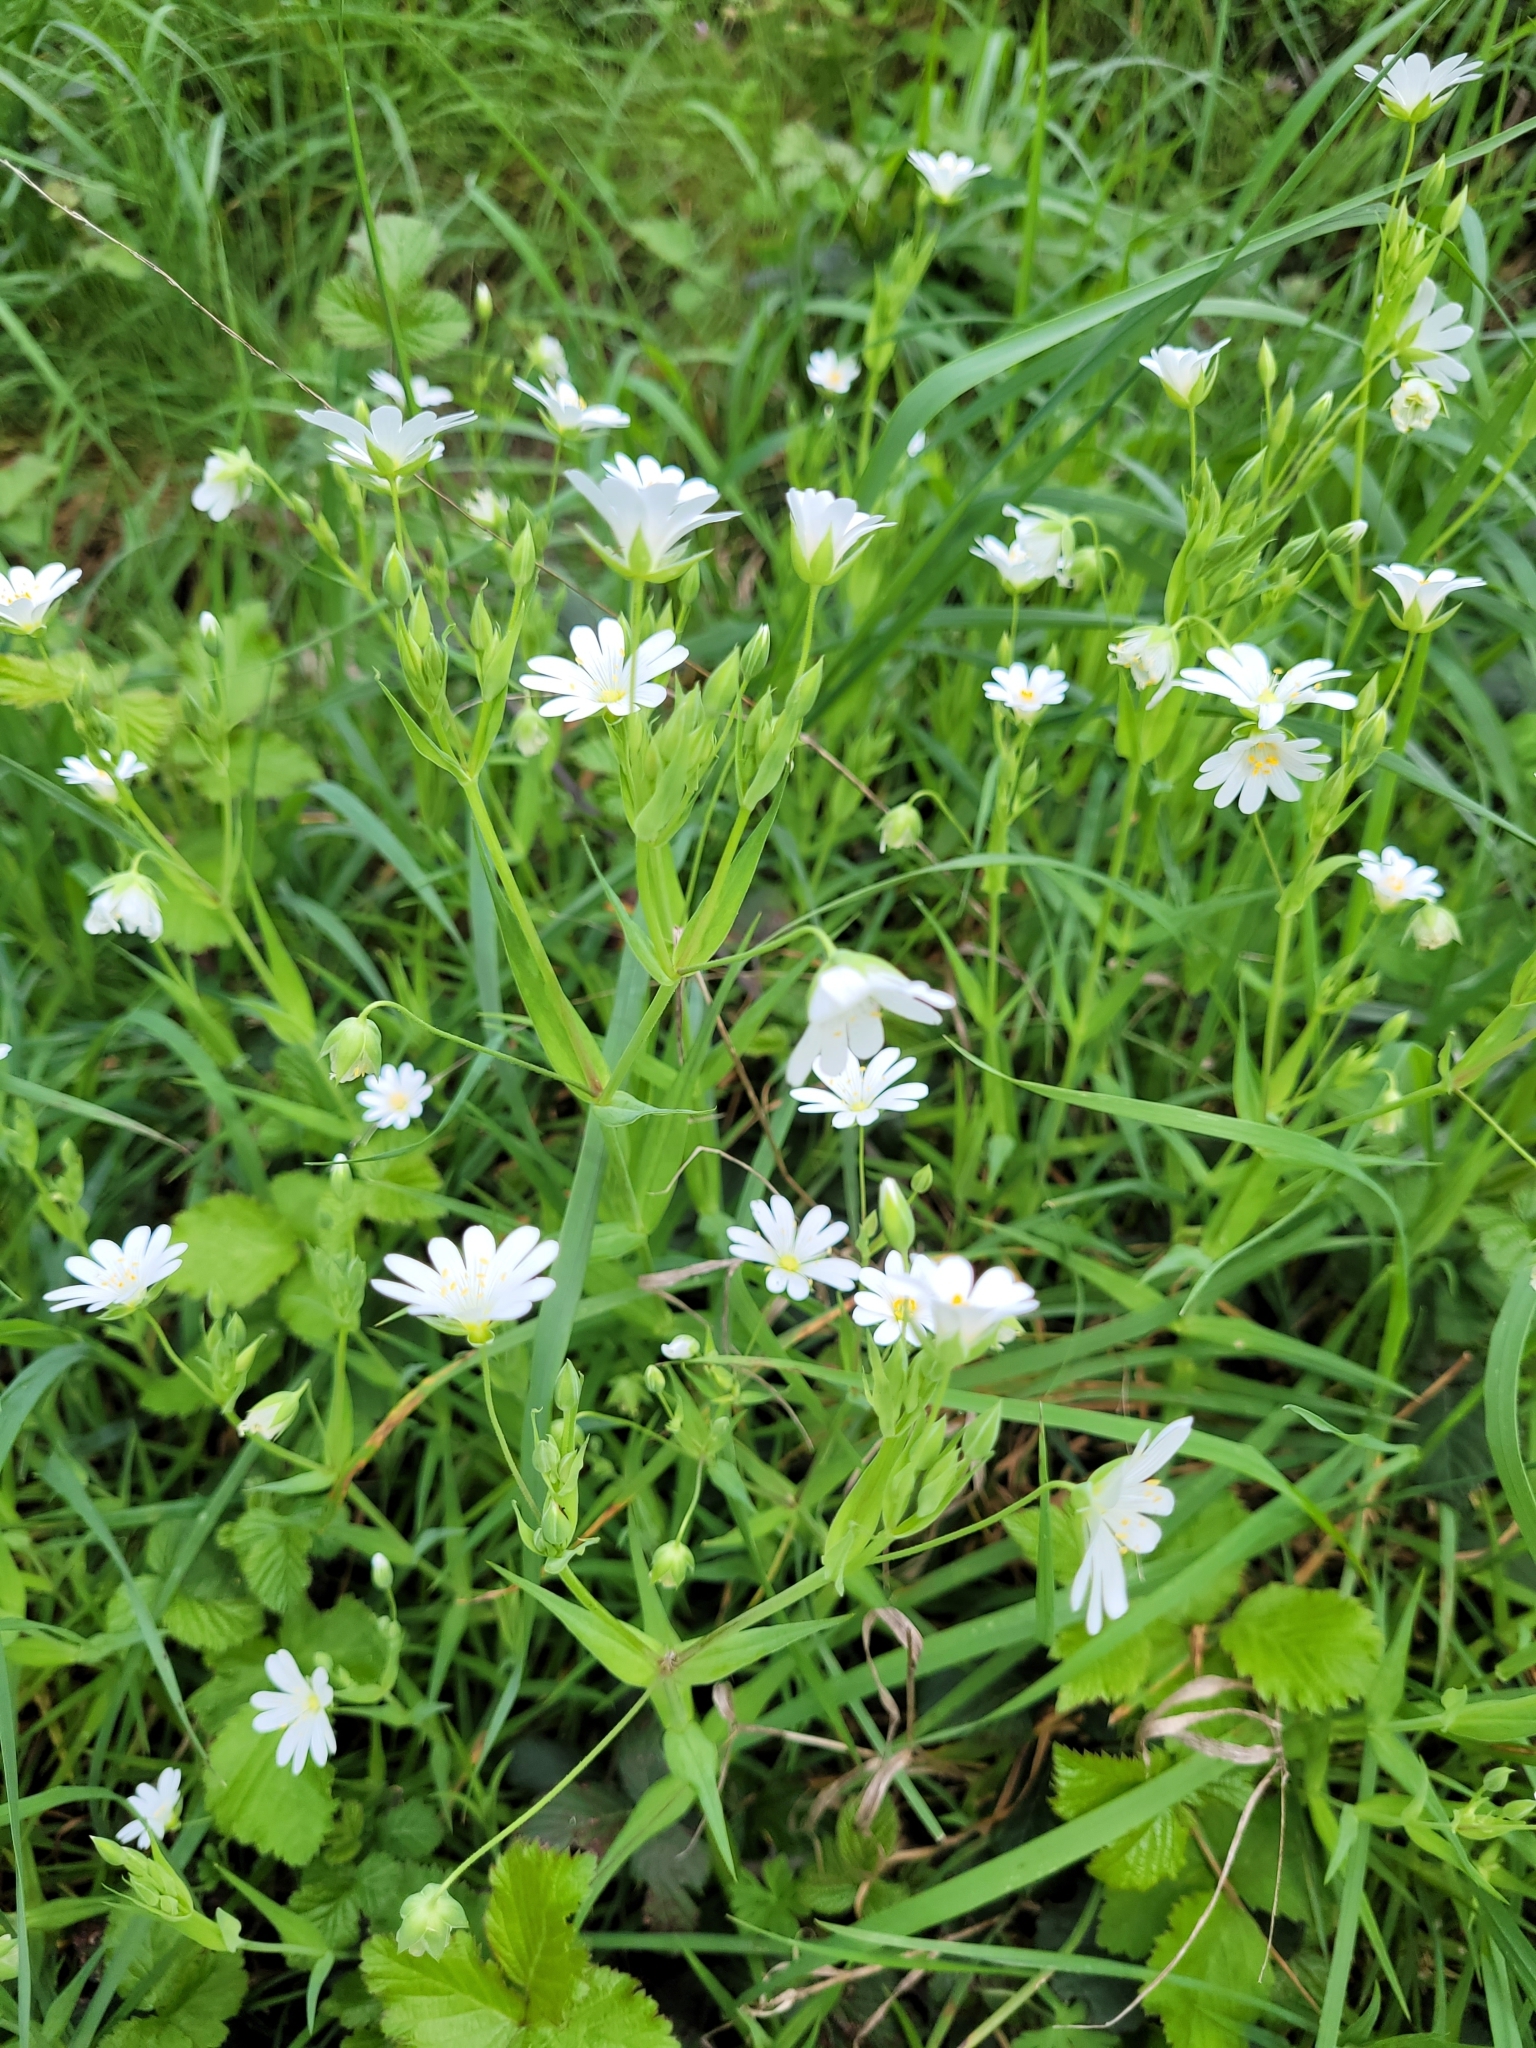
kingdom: Plantae
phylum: Tracheophyta
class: Magnoliopsida
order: Caryophyllales
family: Caryophyllaceae
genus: Rabelera
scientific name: Rabelera holostea
